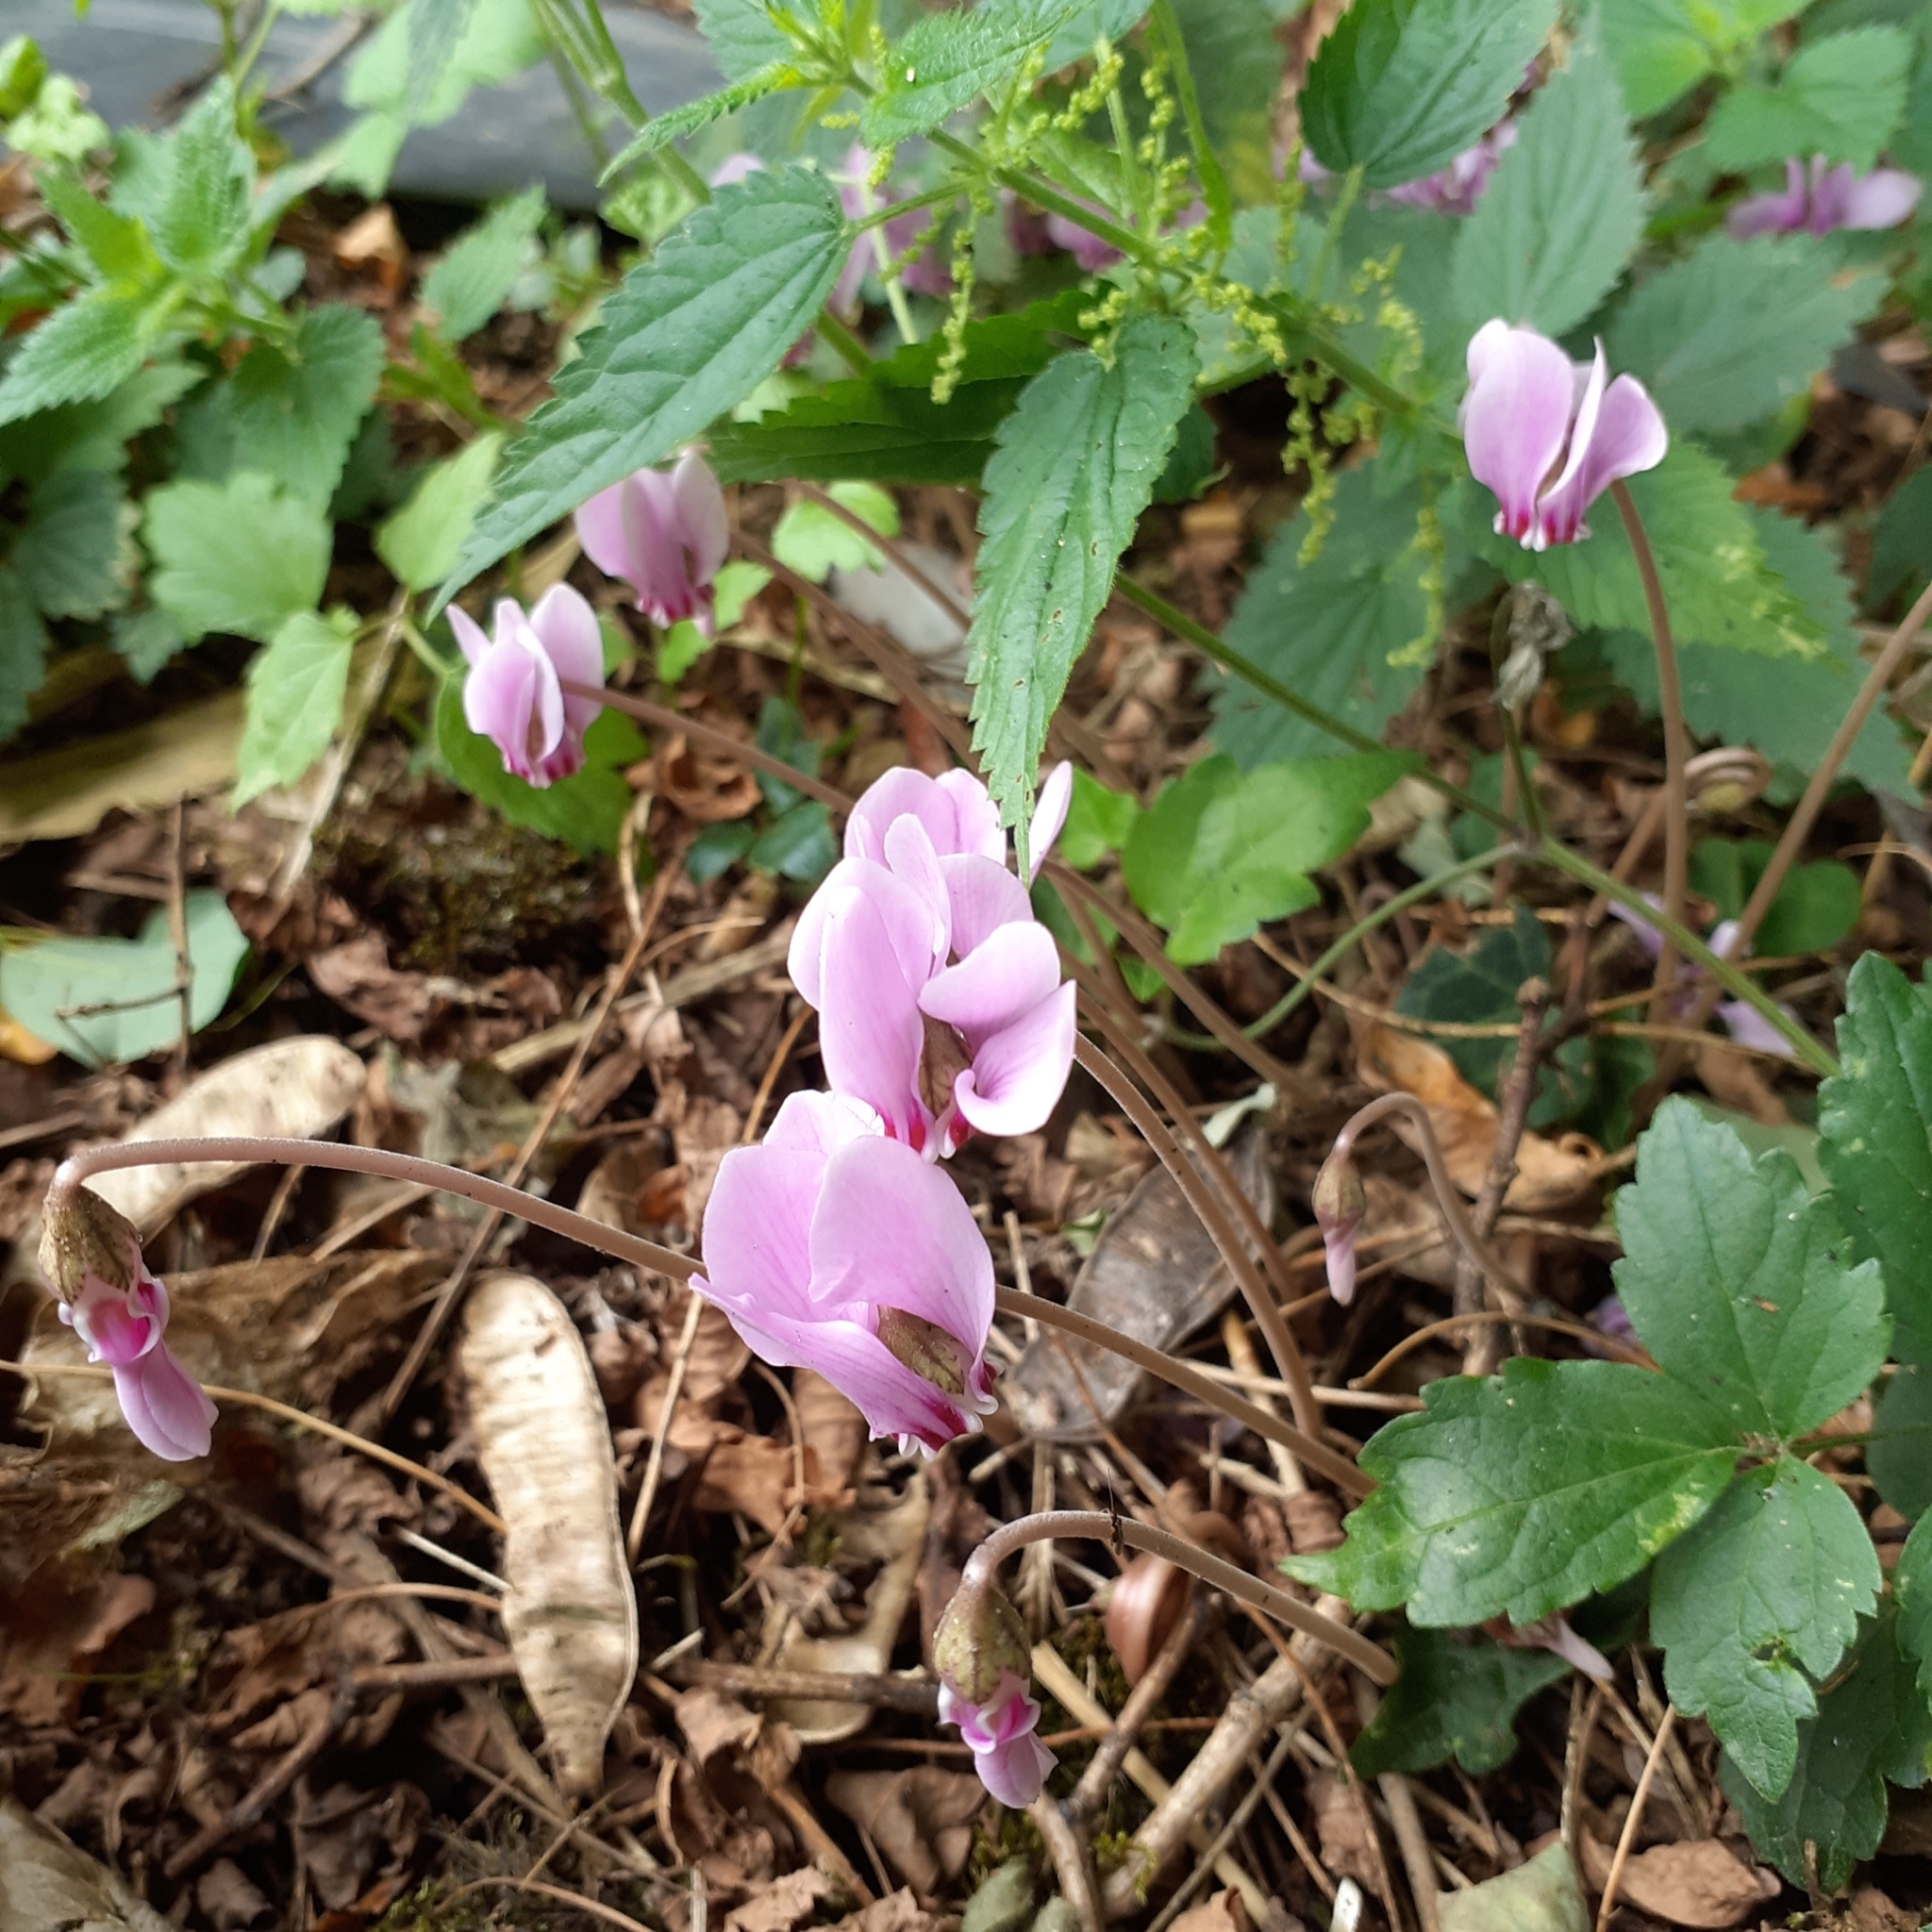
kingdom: Plantae
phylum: Tracheophyta
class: Magnoliopsida
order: Ericales
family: Primulaceae
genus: Cyclamen
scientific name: Cyclamen hederifolium
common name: Sowbread
